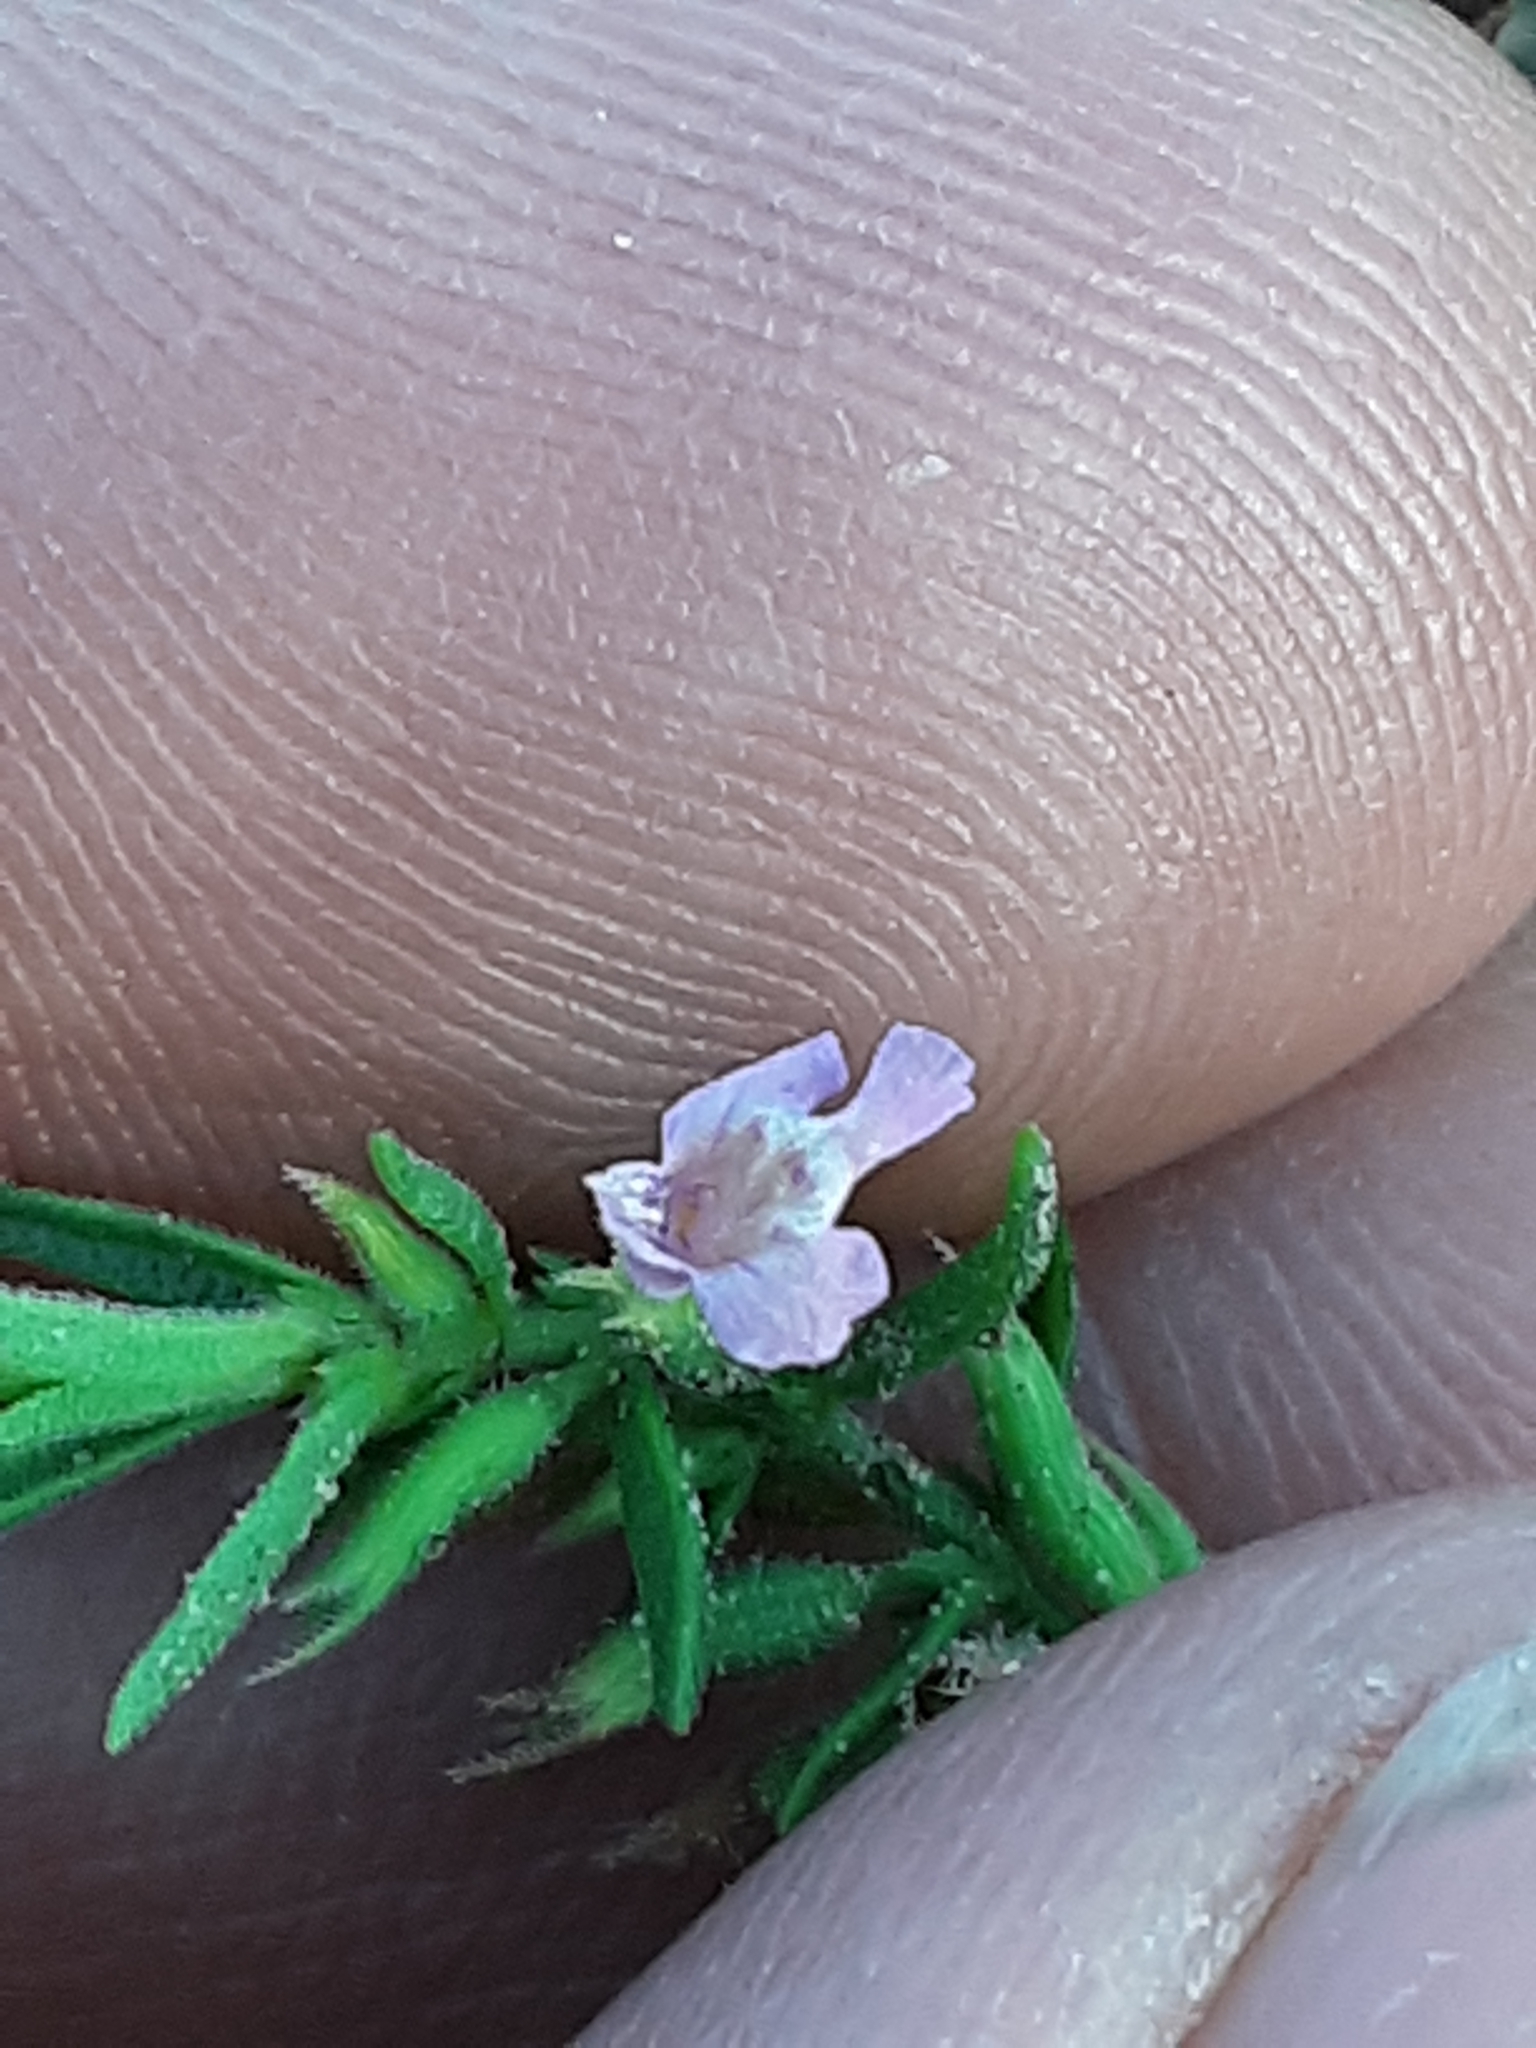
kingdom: Plantae
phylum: Tracheophyta
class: Magnoliopsida
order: Lamiales
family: Lamiaceae
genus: Hedeoma
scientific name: Hedeoma drummondii
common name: New mexico pennyroyal
